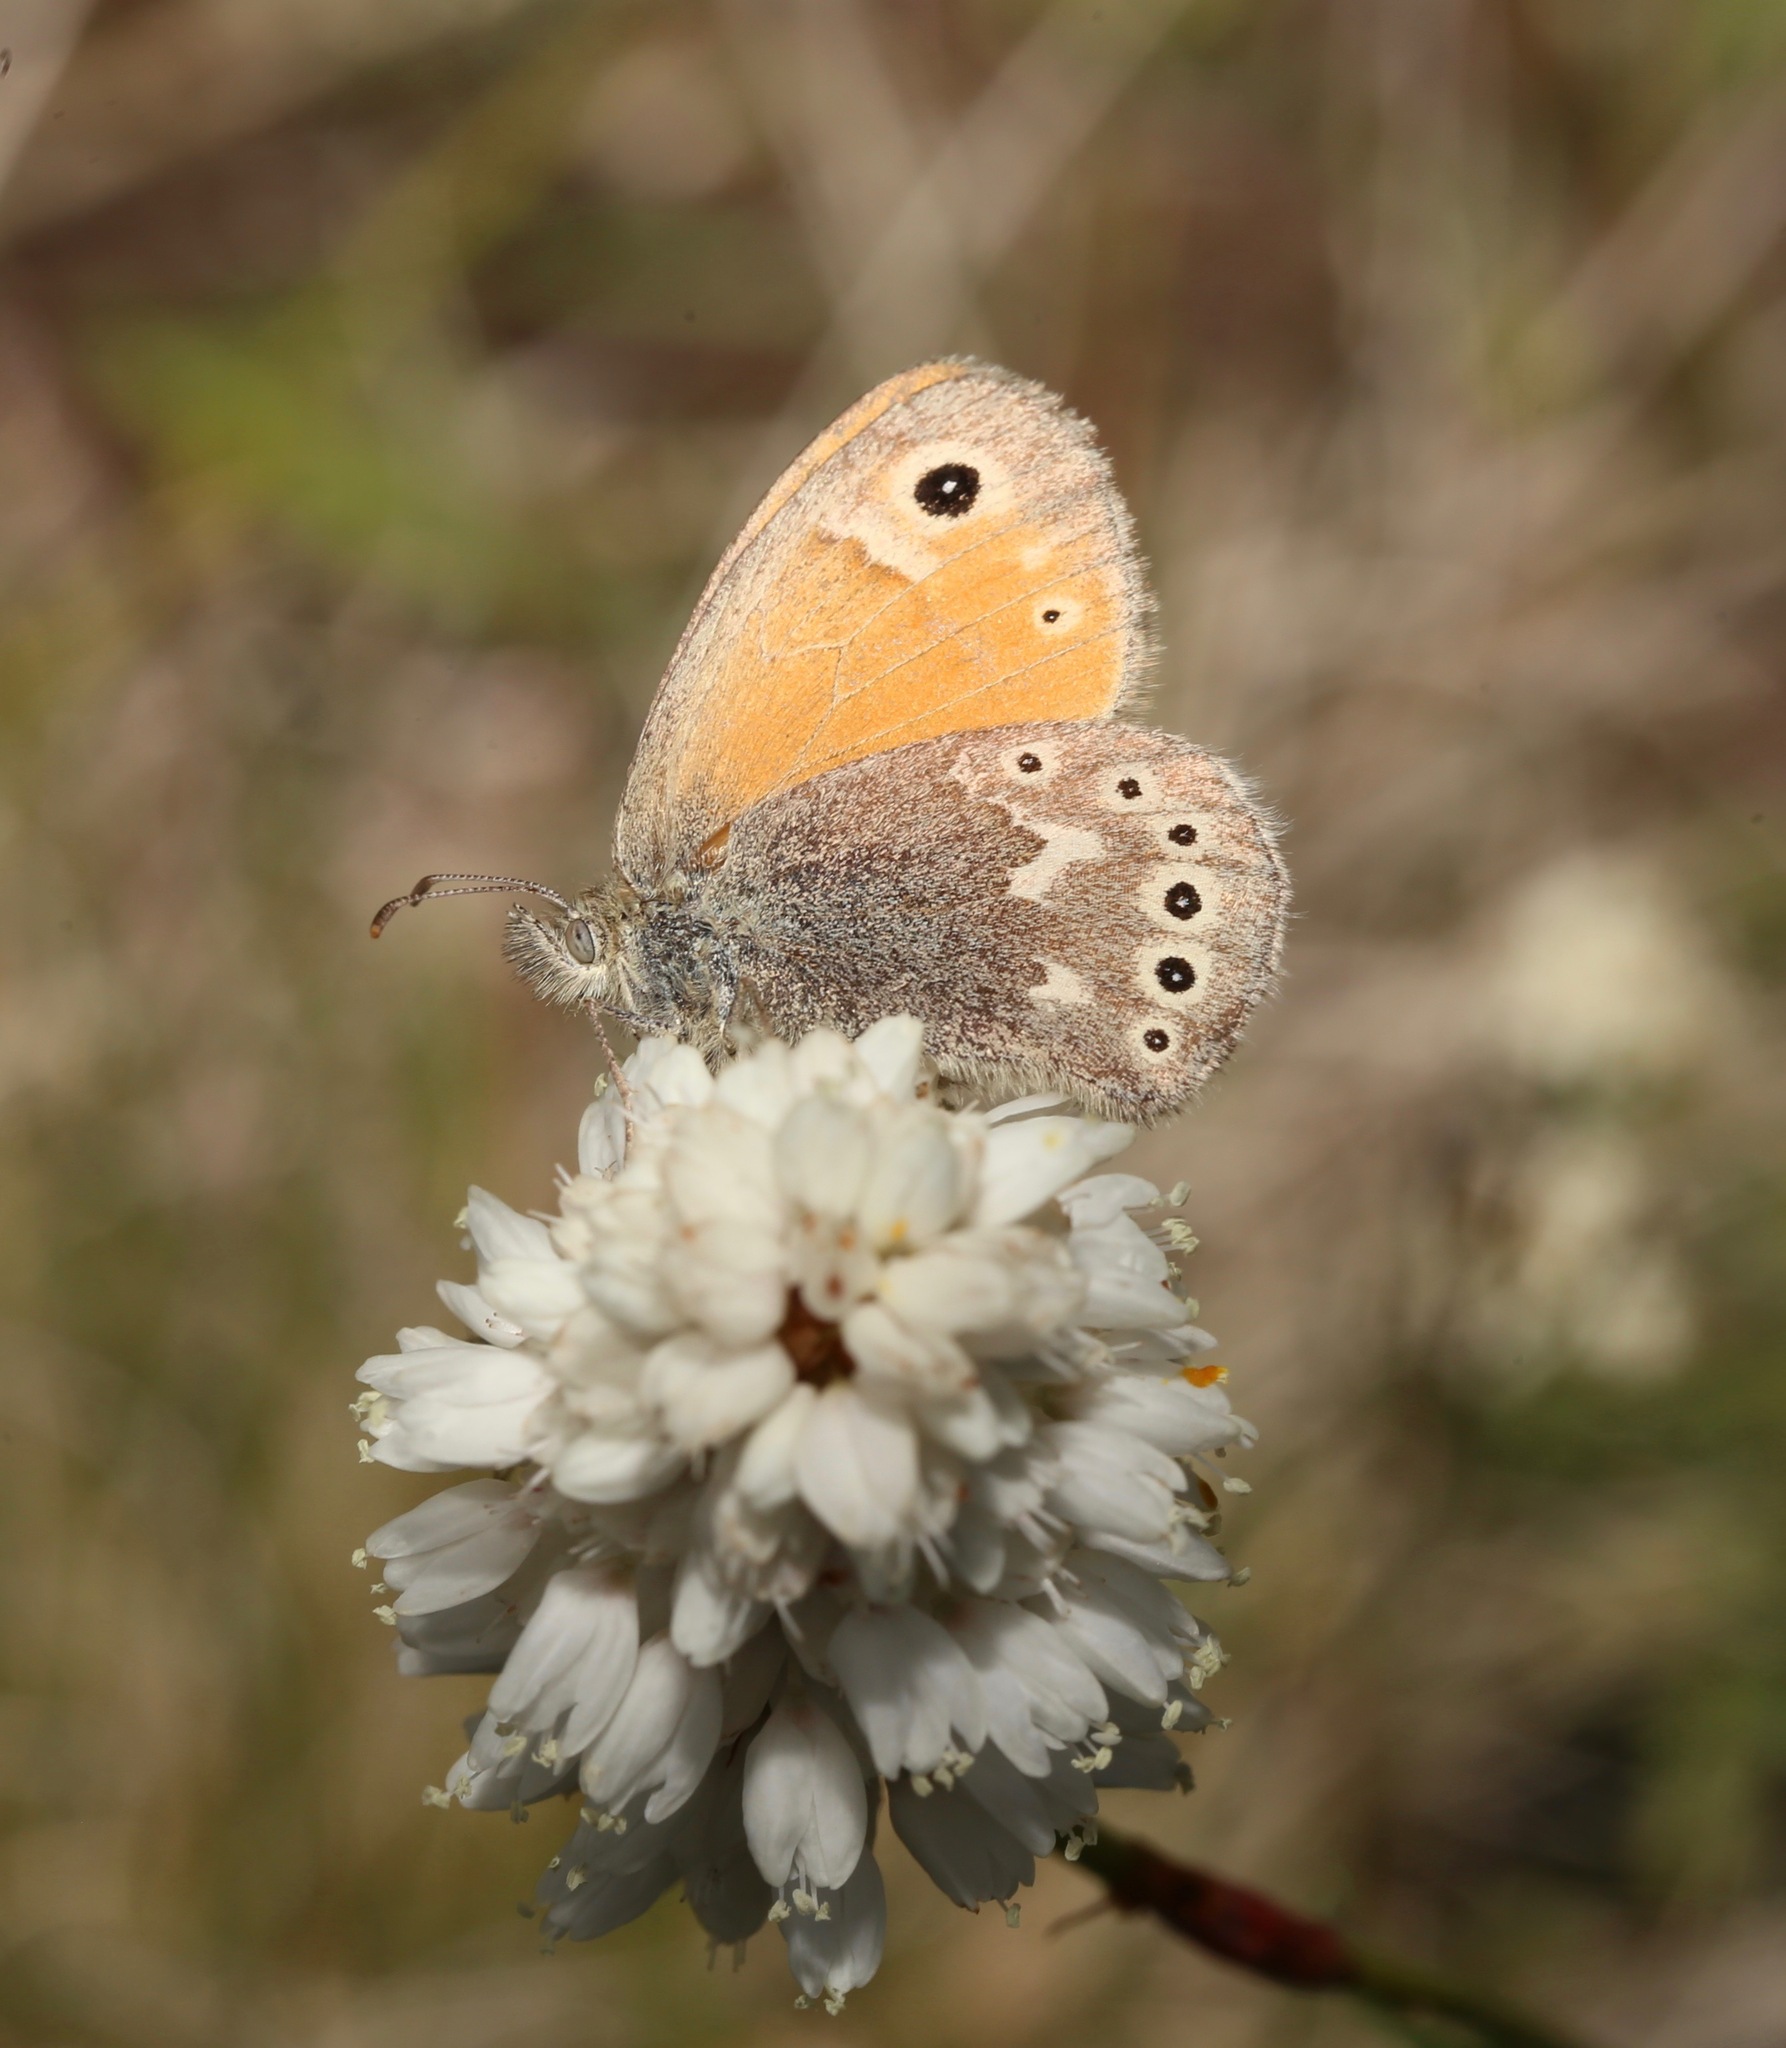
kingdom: Animalia
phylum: Arthropoda
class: Insecta
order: Lepidoptera
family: Nymphalidae
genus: Coenonympha
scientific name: Coenonympha california
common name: Common ringlet
